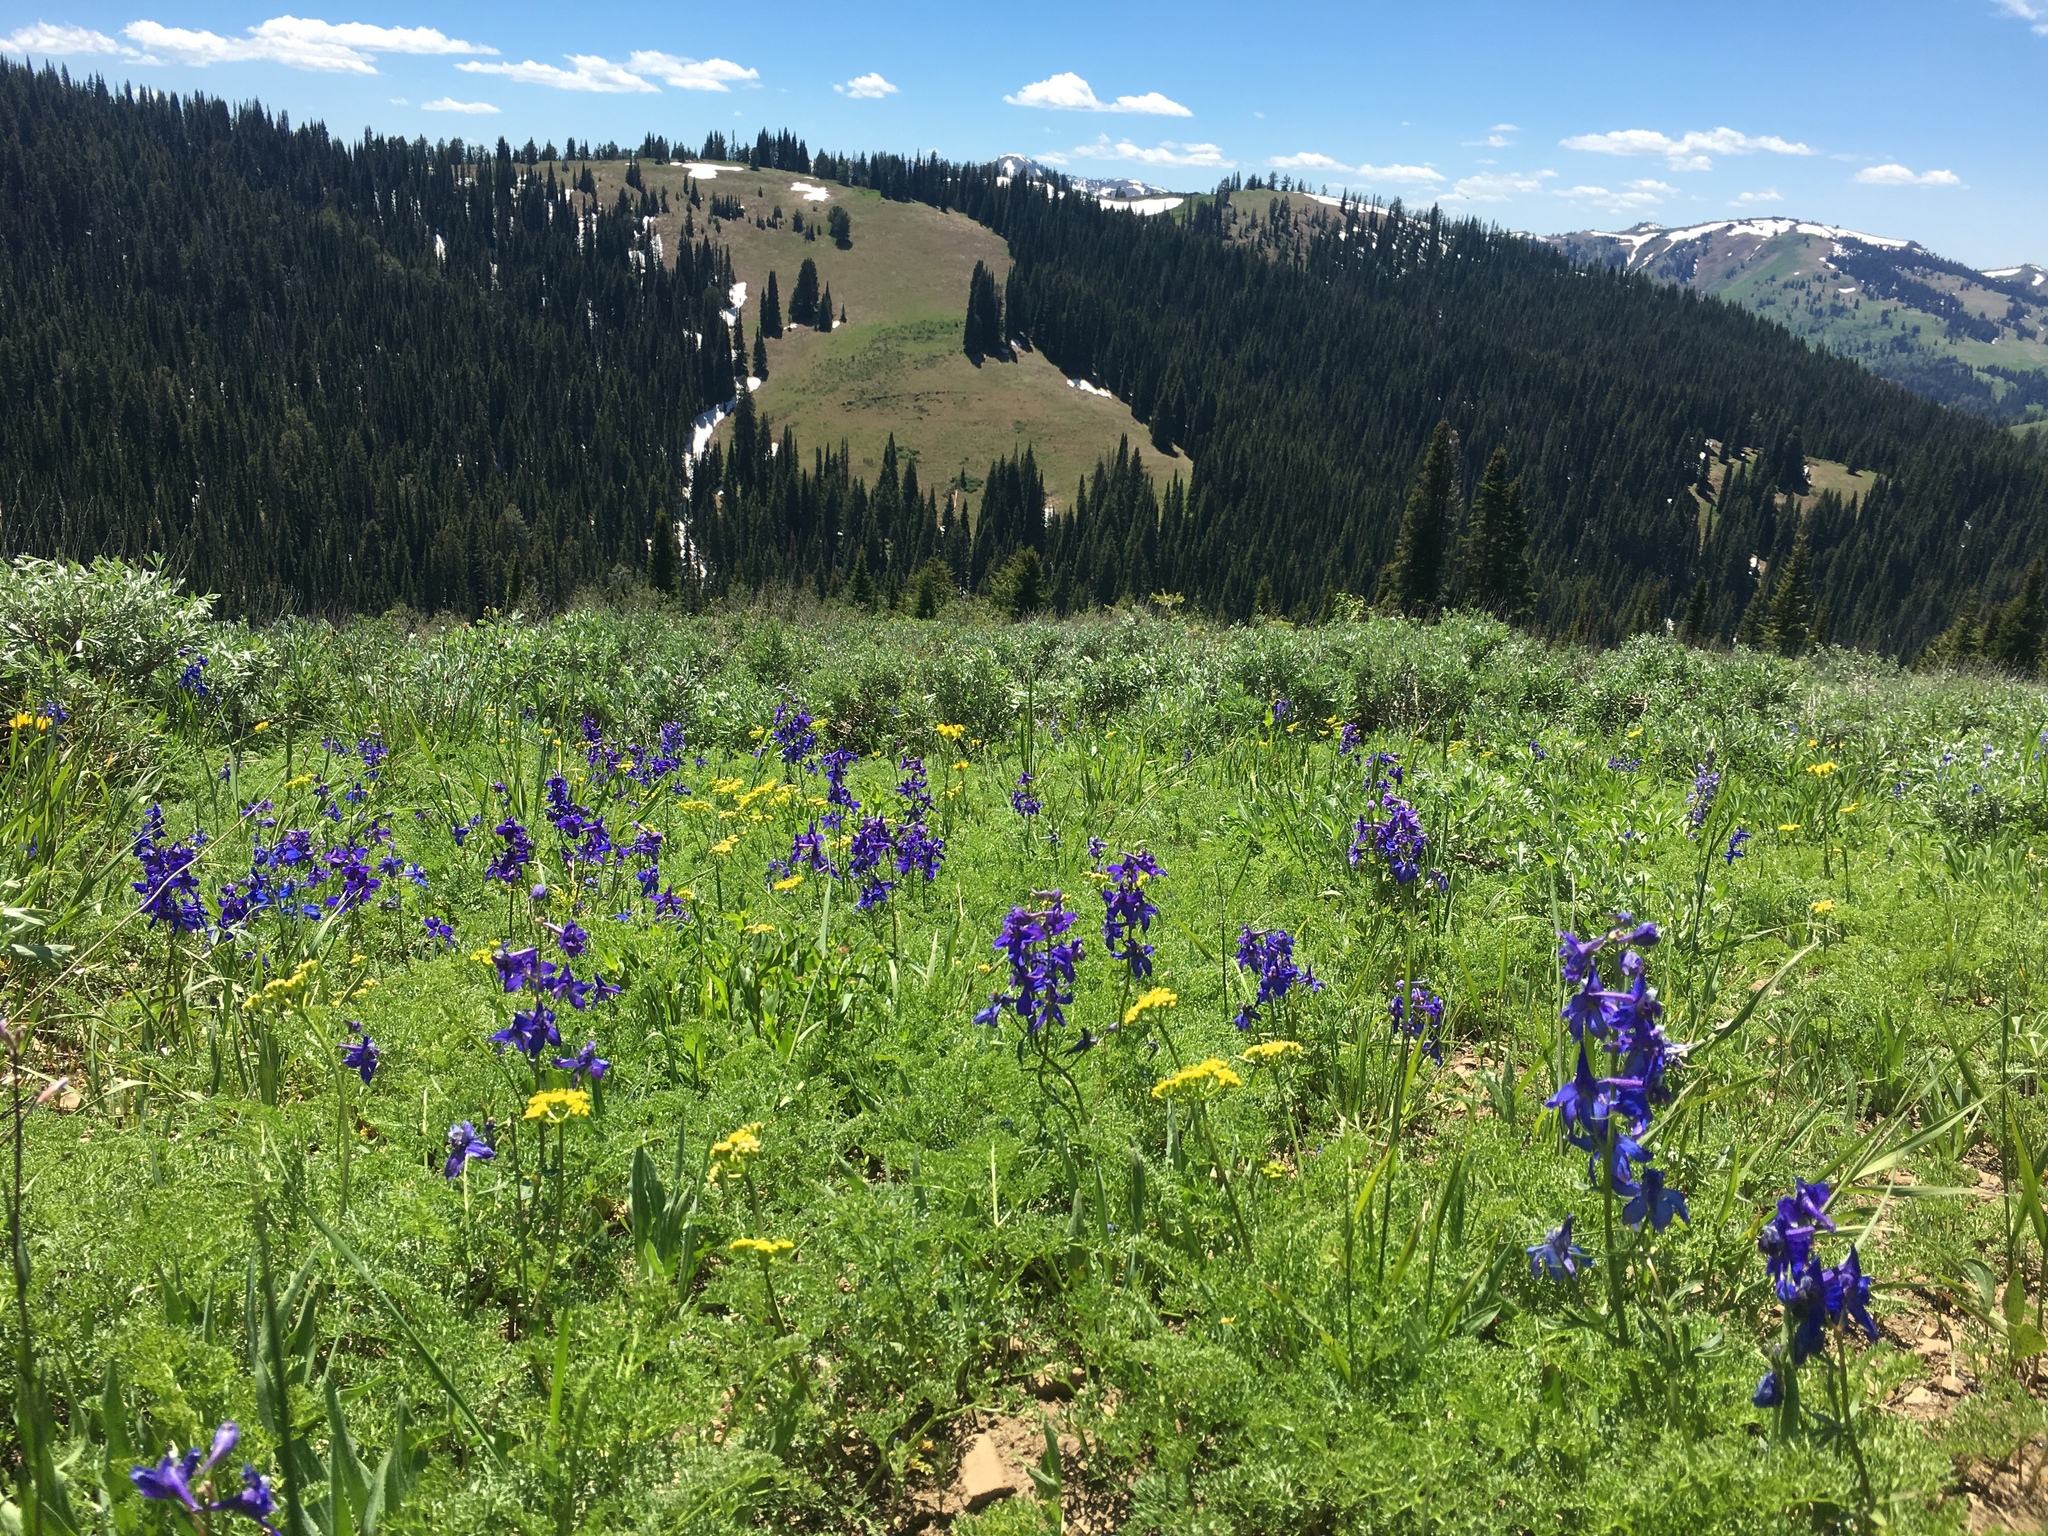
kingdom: Plantae
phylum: Tracheophyta
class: Magnoliopsida
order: Ranunculales
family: Ranunculaceae
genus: Delphinium
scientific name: Delphinium nuttallianum
